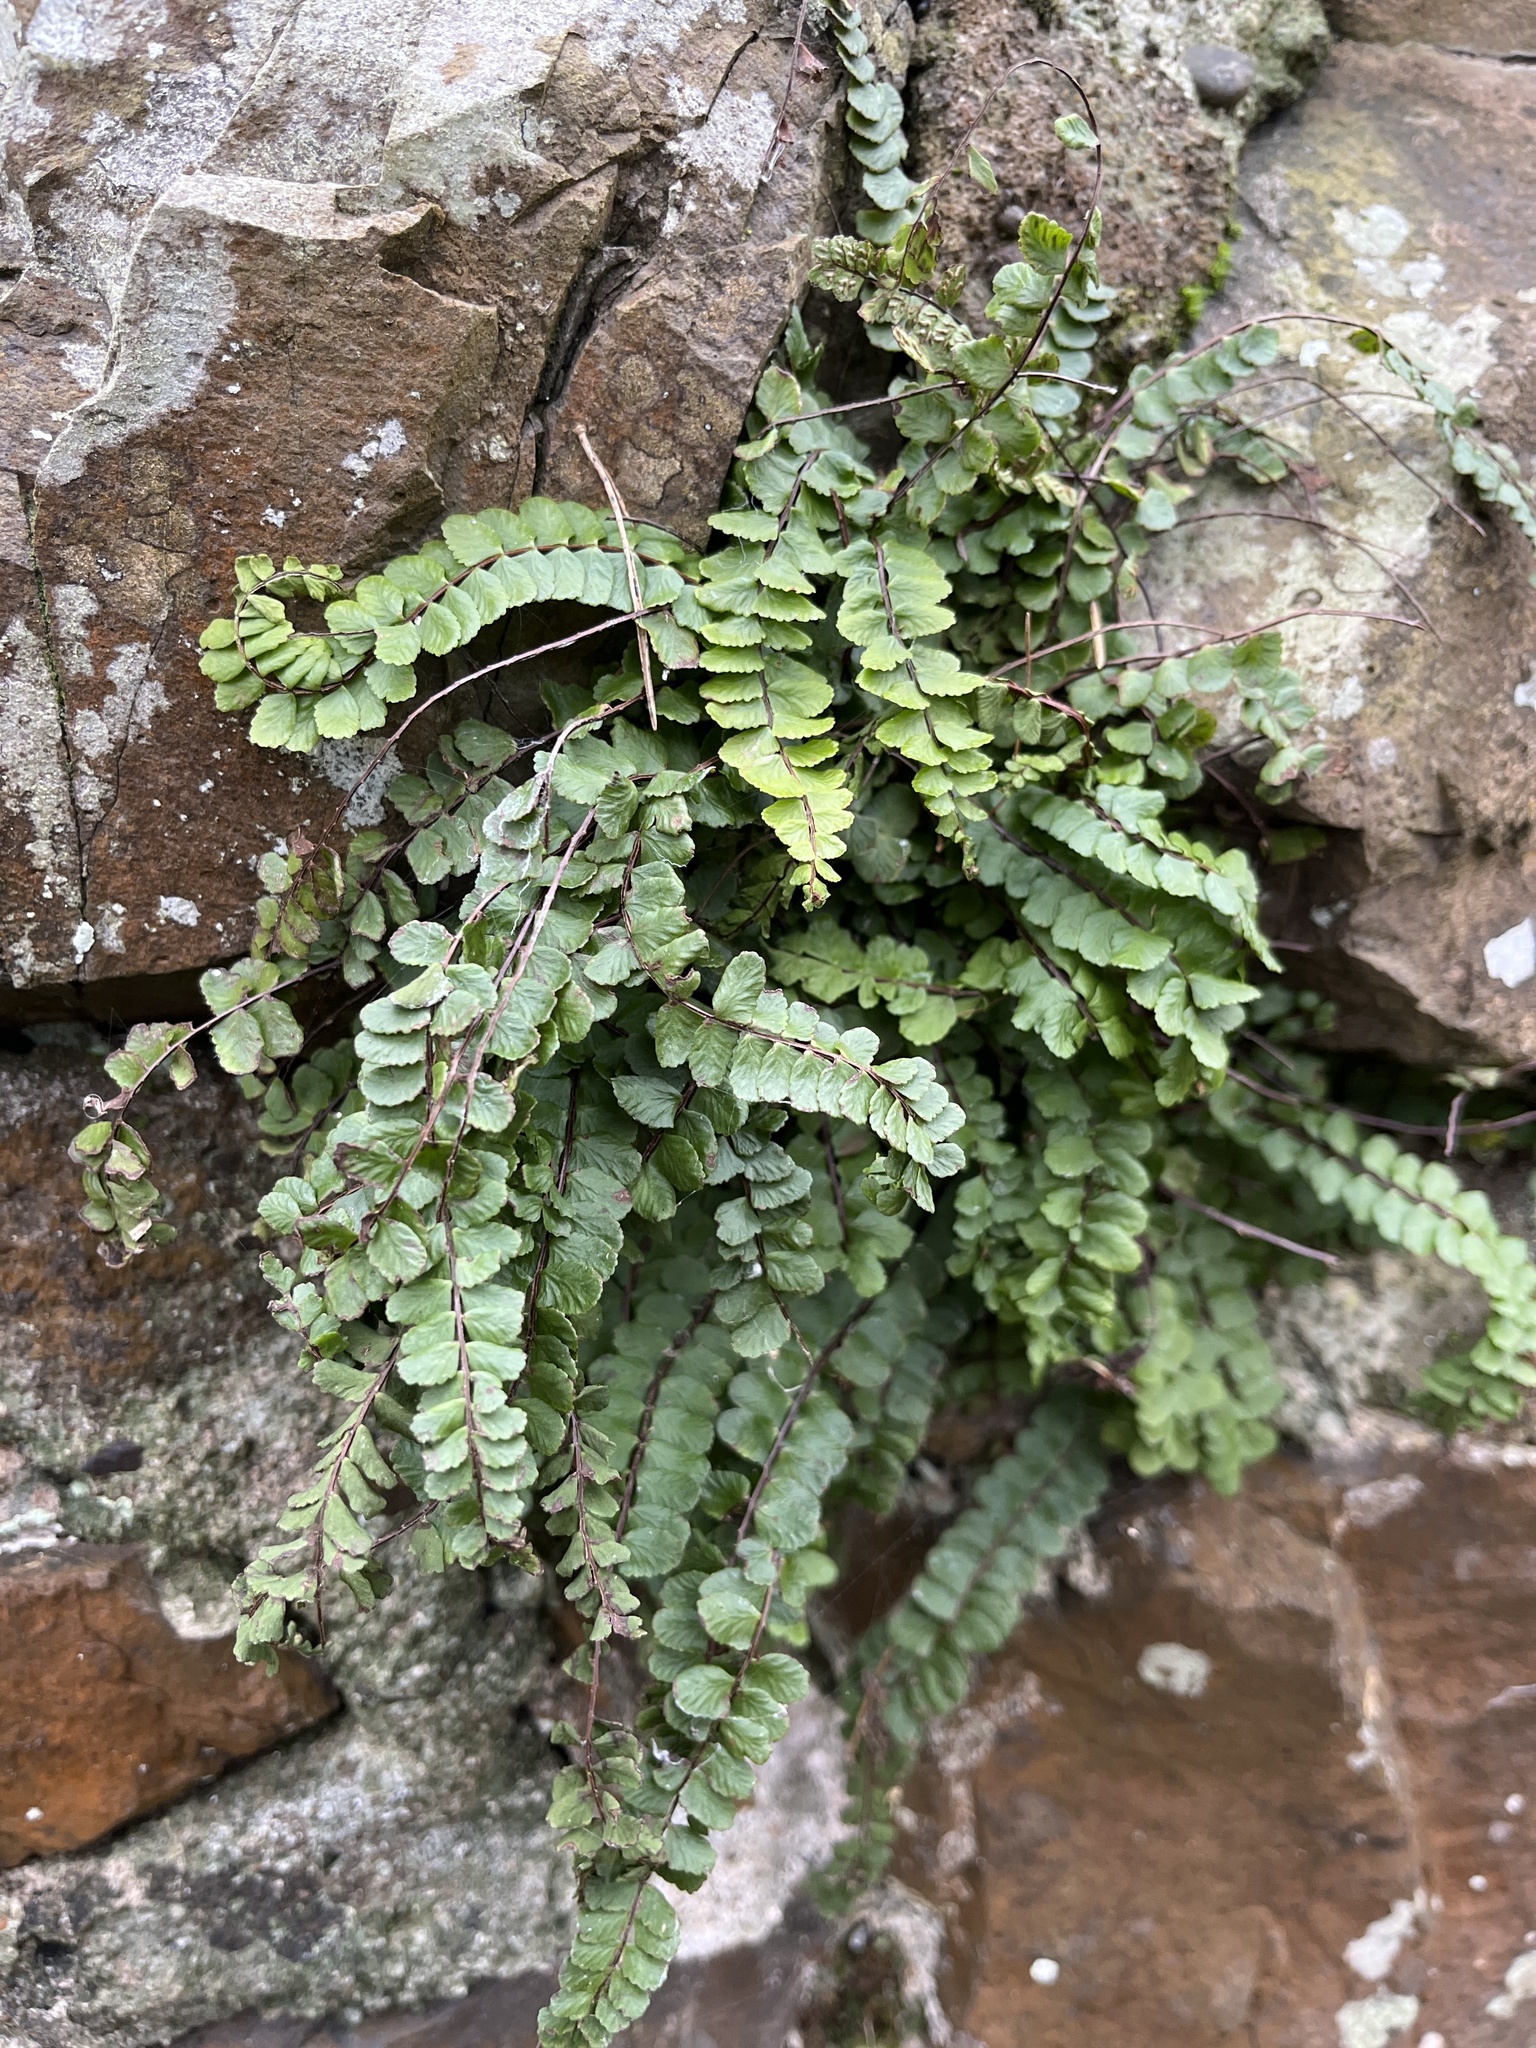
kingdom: Plantae
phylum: Tracheophyta
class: Polypodiopsida
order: Polypodiales
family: Aspleniaceae
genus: Asplenium
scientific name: Asplenium trichomanes
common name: Maidenhair spleenwort
